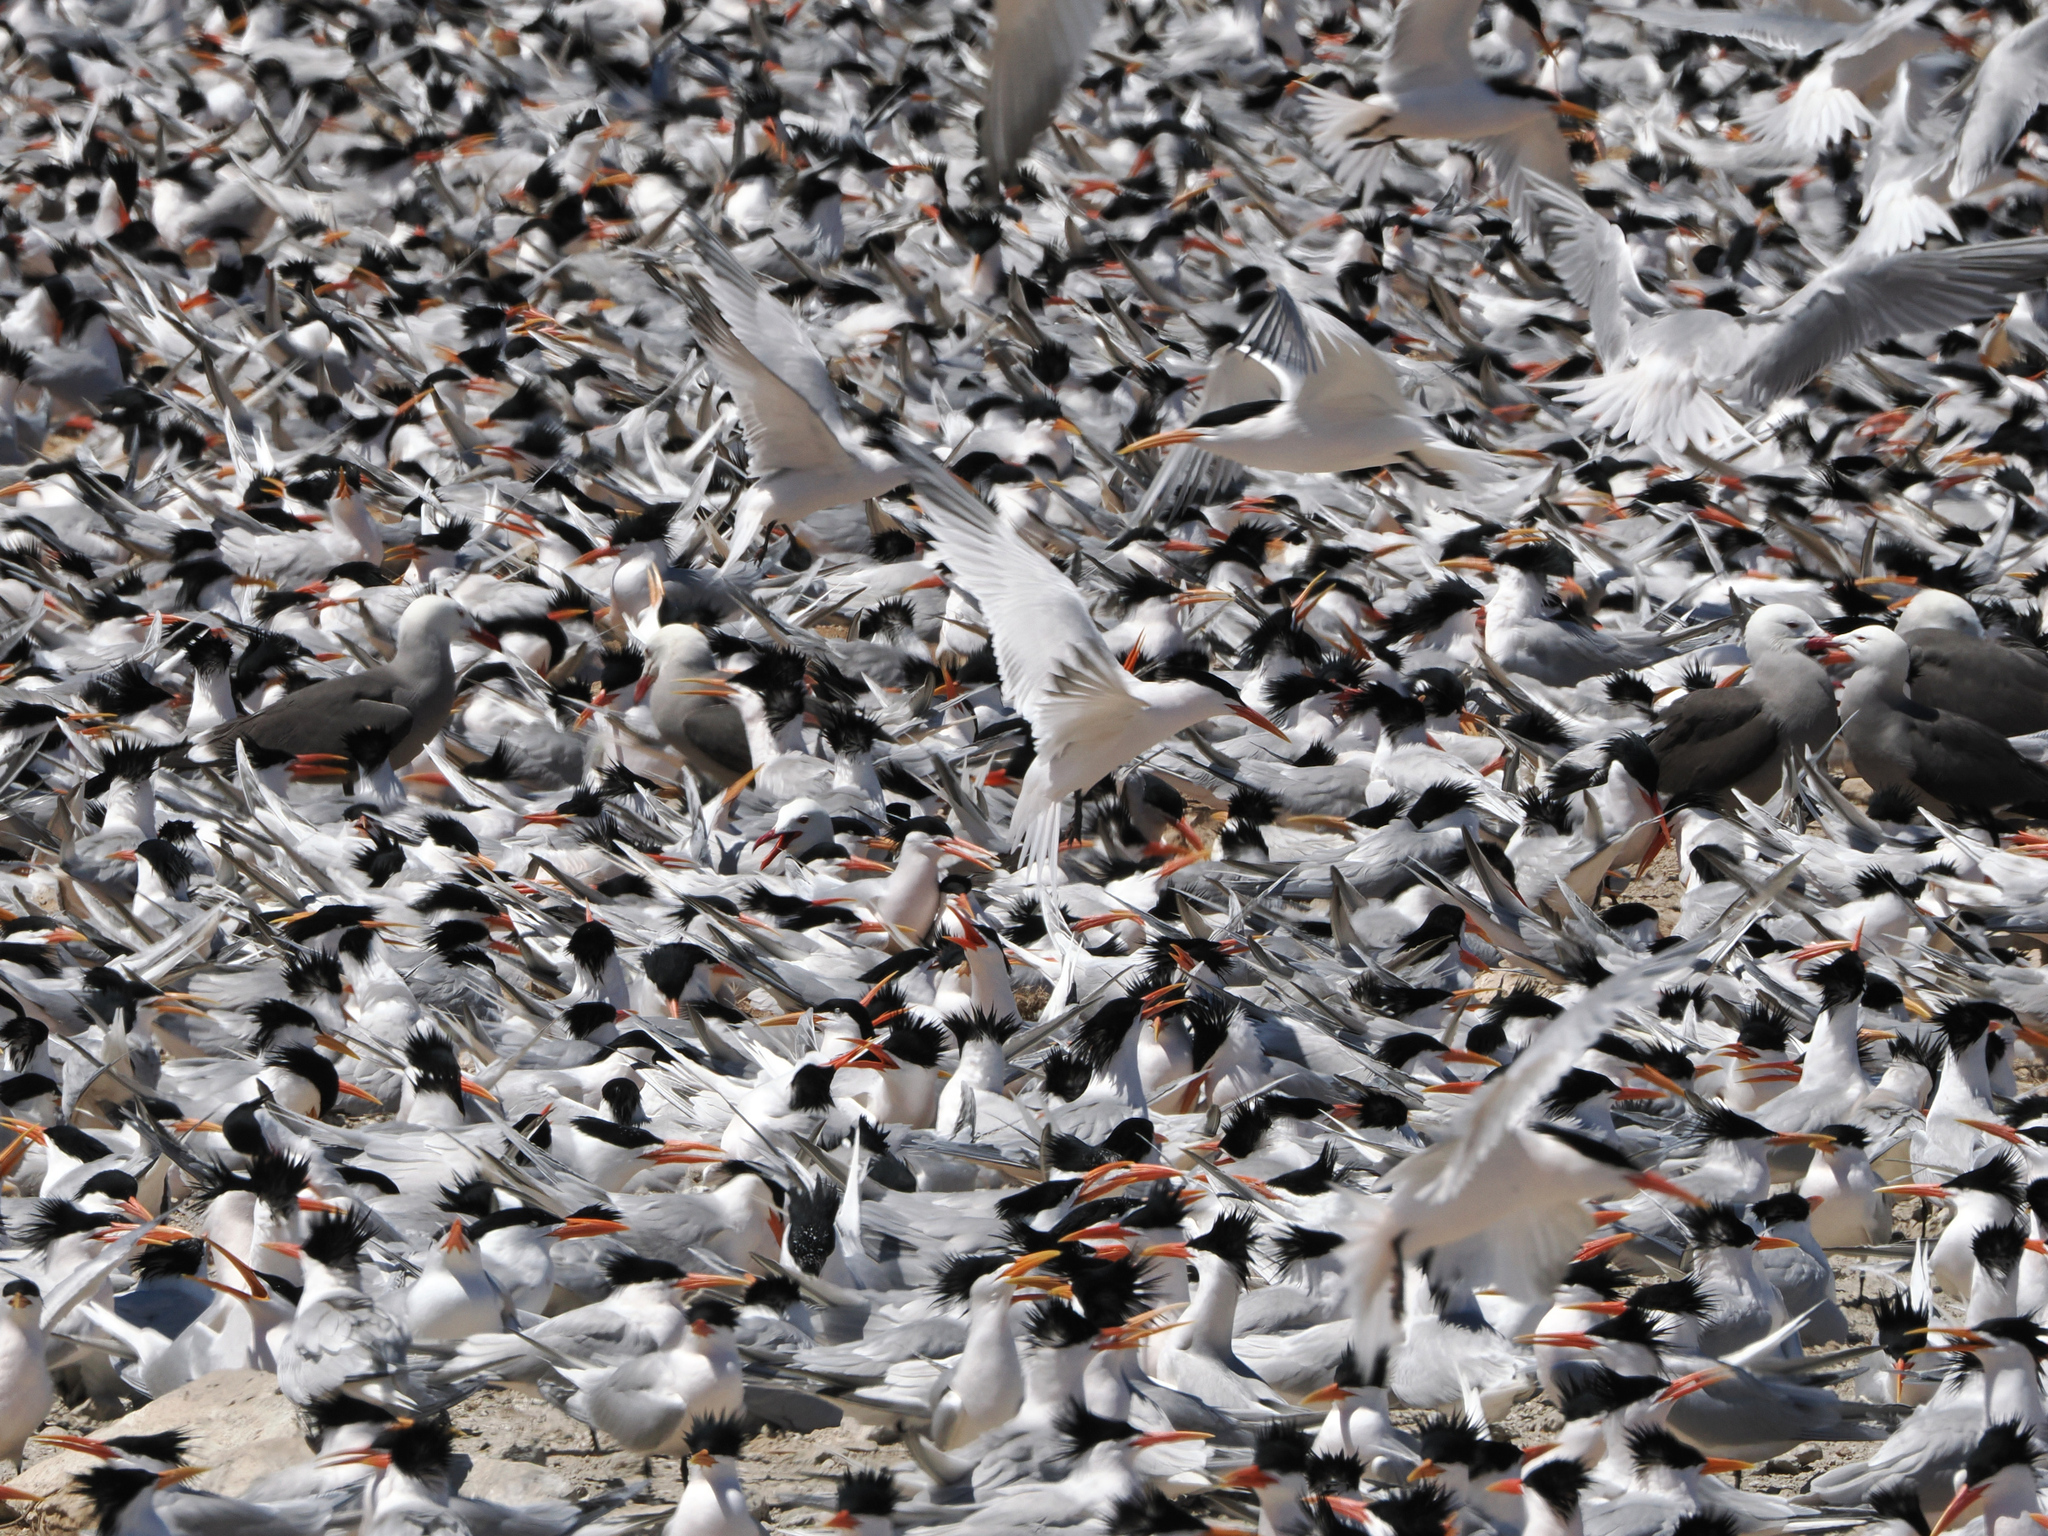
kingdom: Animalia
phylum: Chordata
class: Aves
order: Charadriiformes
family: Laridae
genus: Thalasseus
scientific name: Thalasseus elegans
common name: Elegant tern
